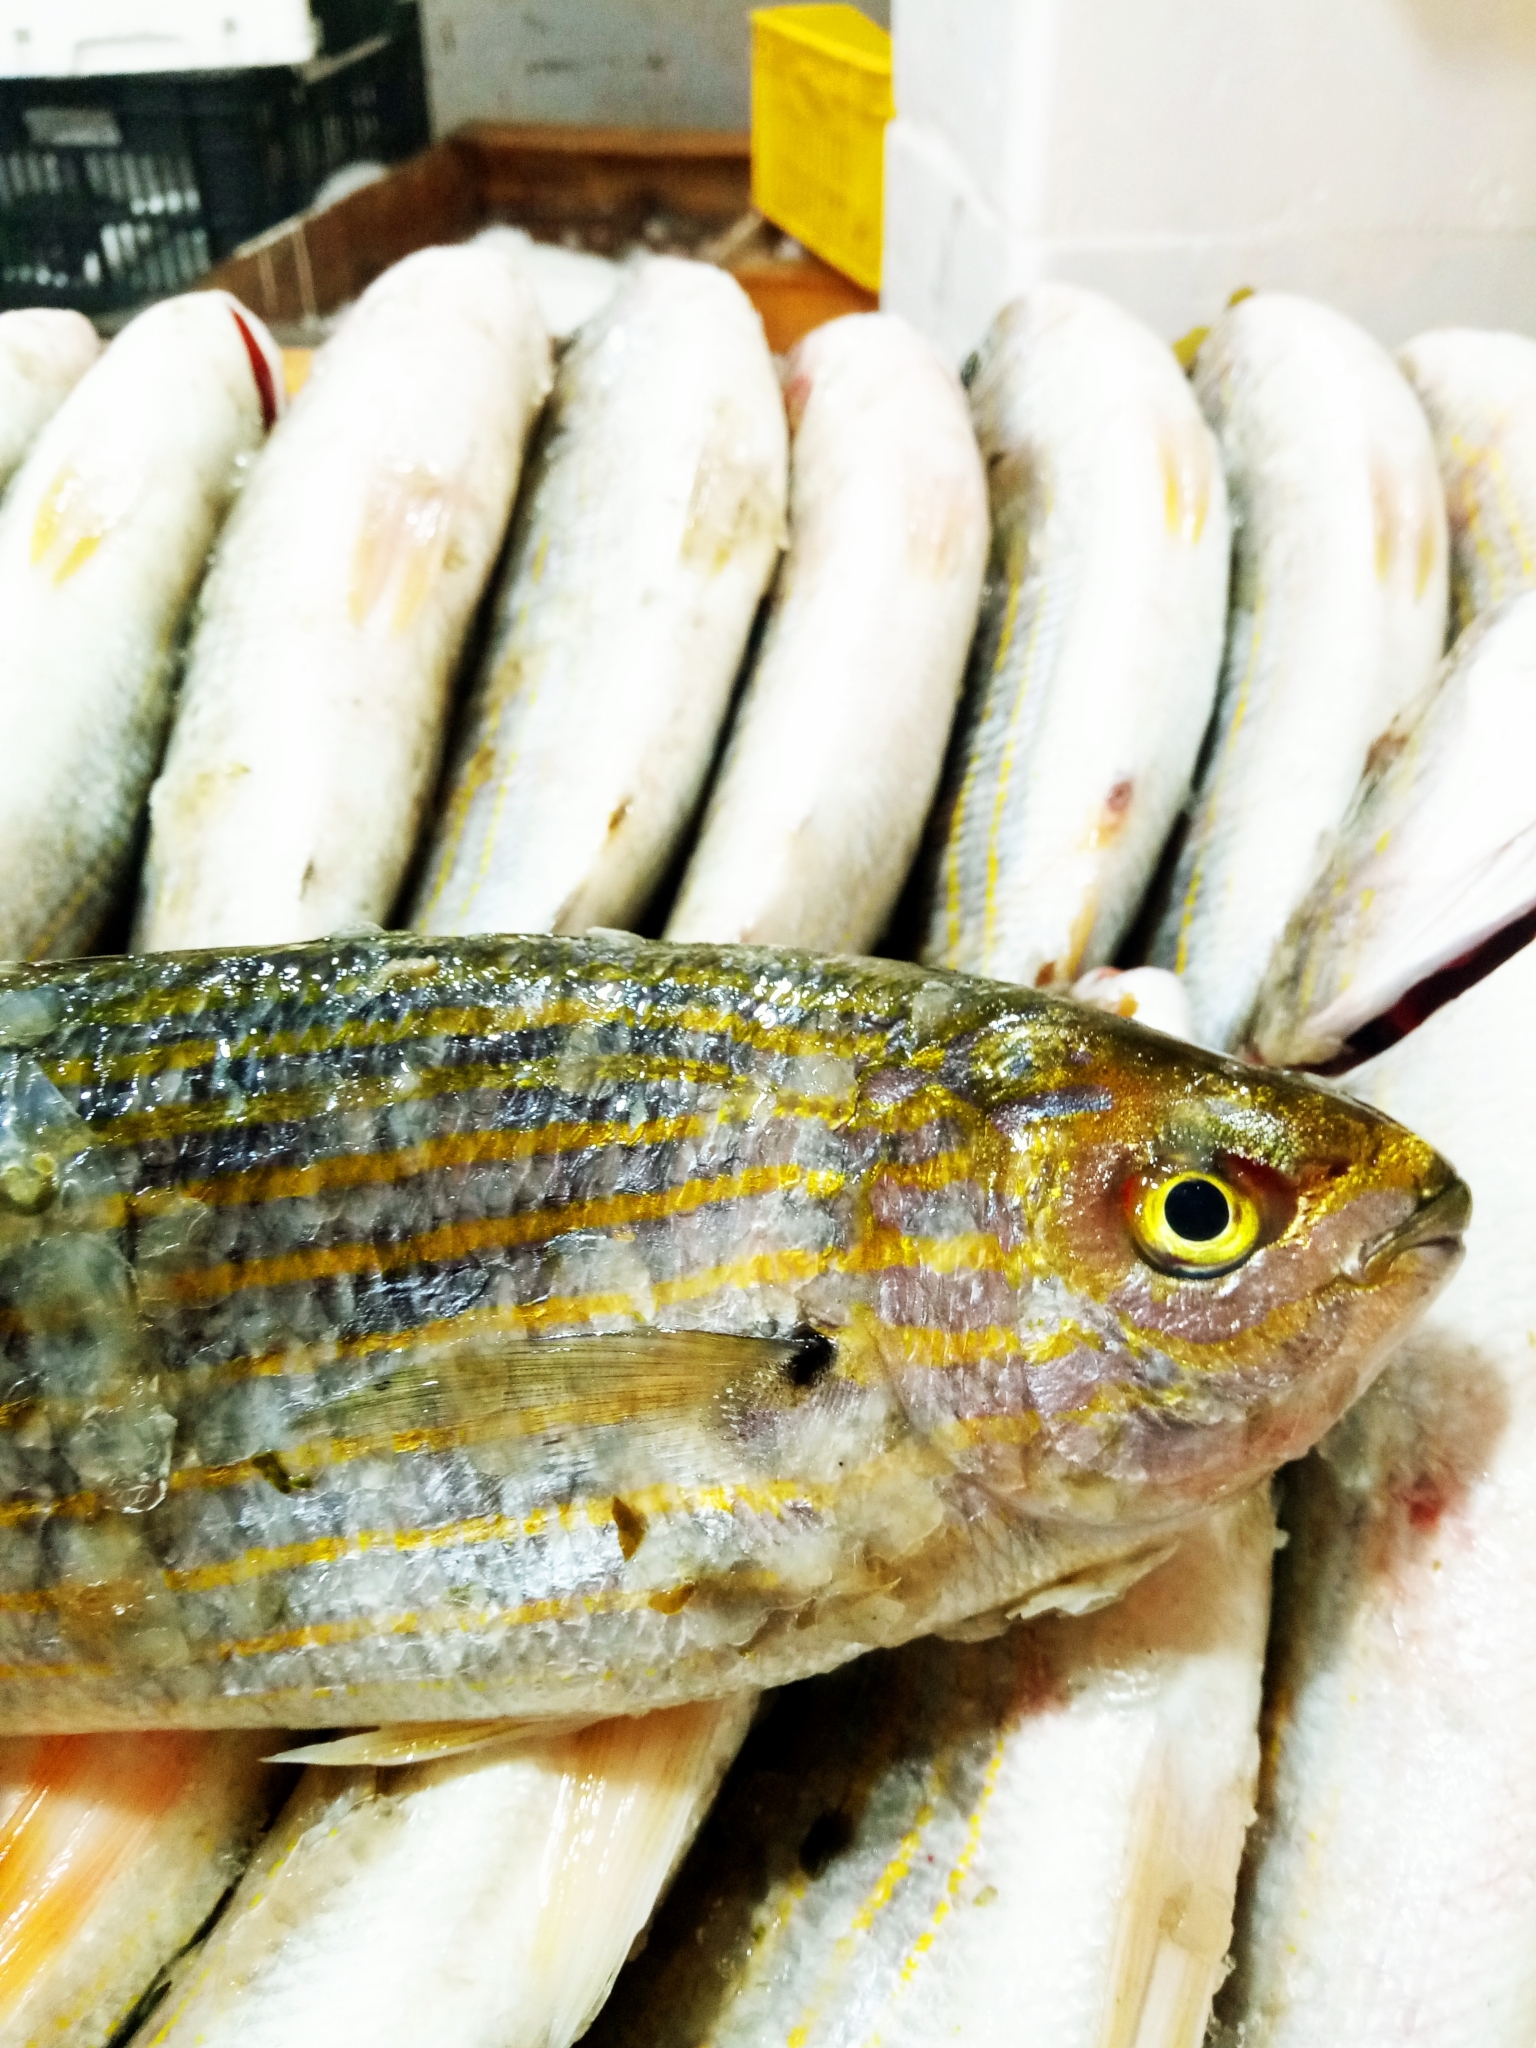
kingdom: Animalia
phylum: Chordata
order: Perciformes
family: Sparidae
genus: Sarpa
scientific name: Sarpa salpa
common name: Salema
